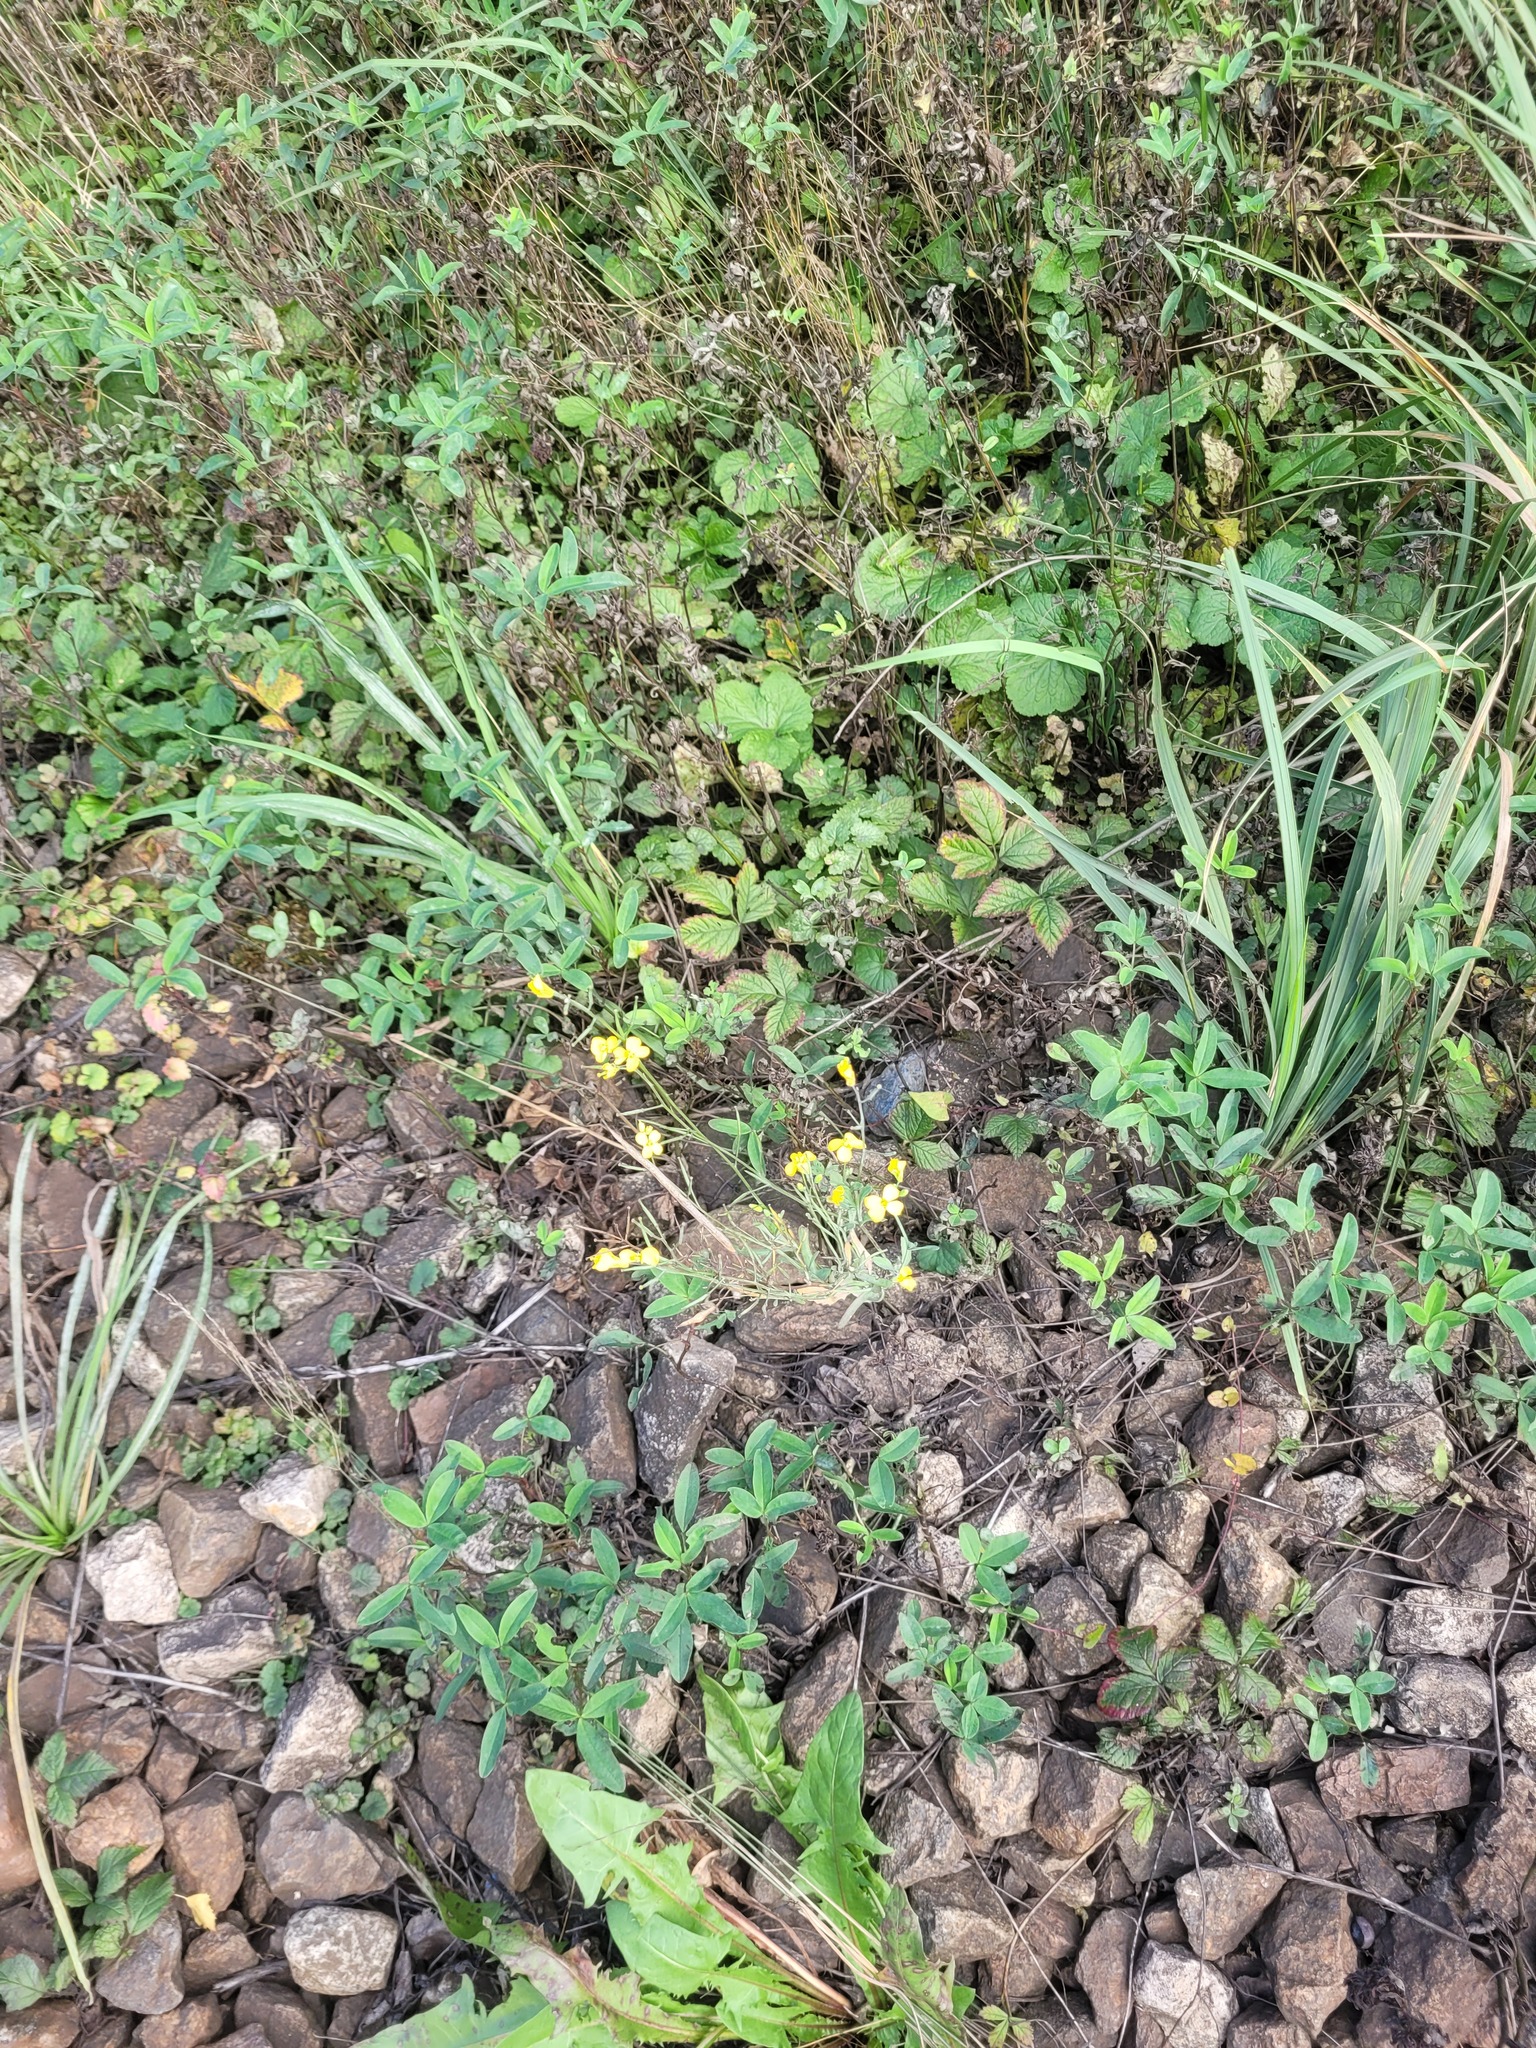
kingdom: Plantae
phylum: Tracheophyta
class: Magnoliopsida
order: Brassicales
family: Brassicaceae
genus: Brassica
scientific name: Brassica napus
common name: Rape
